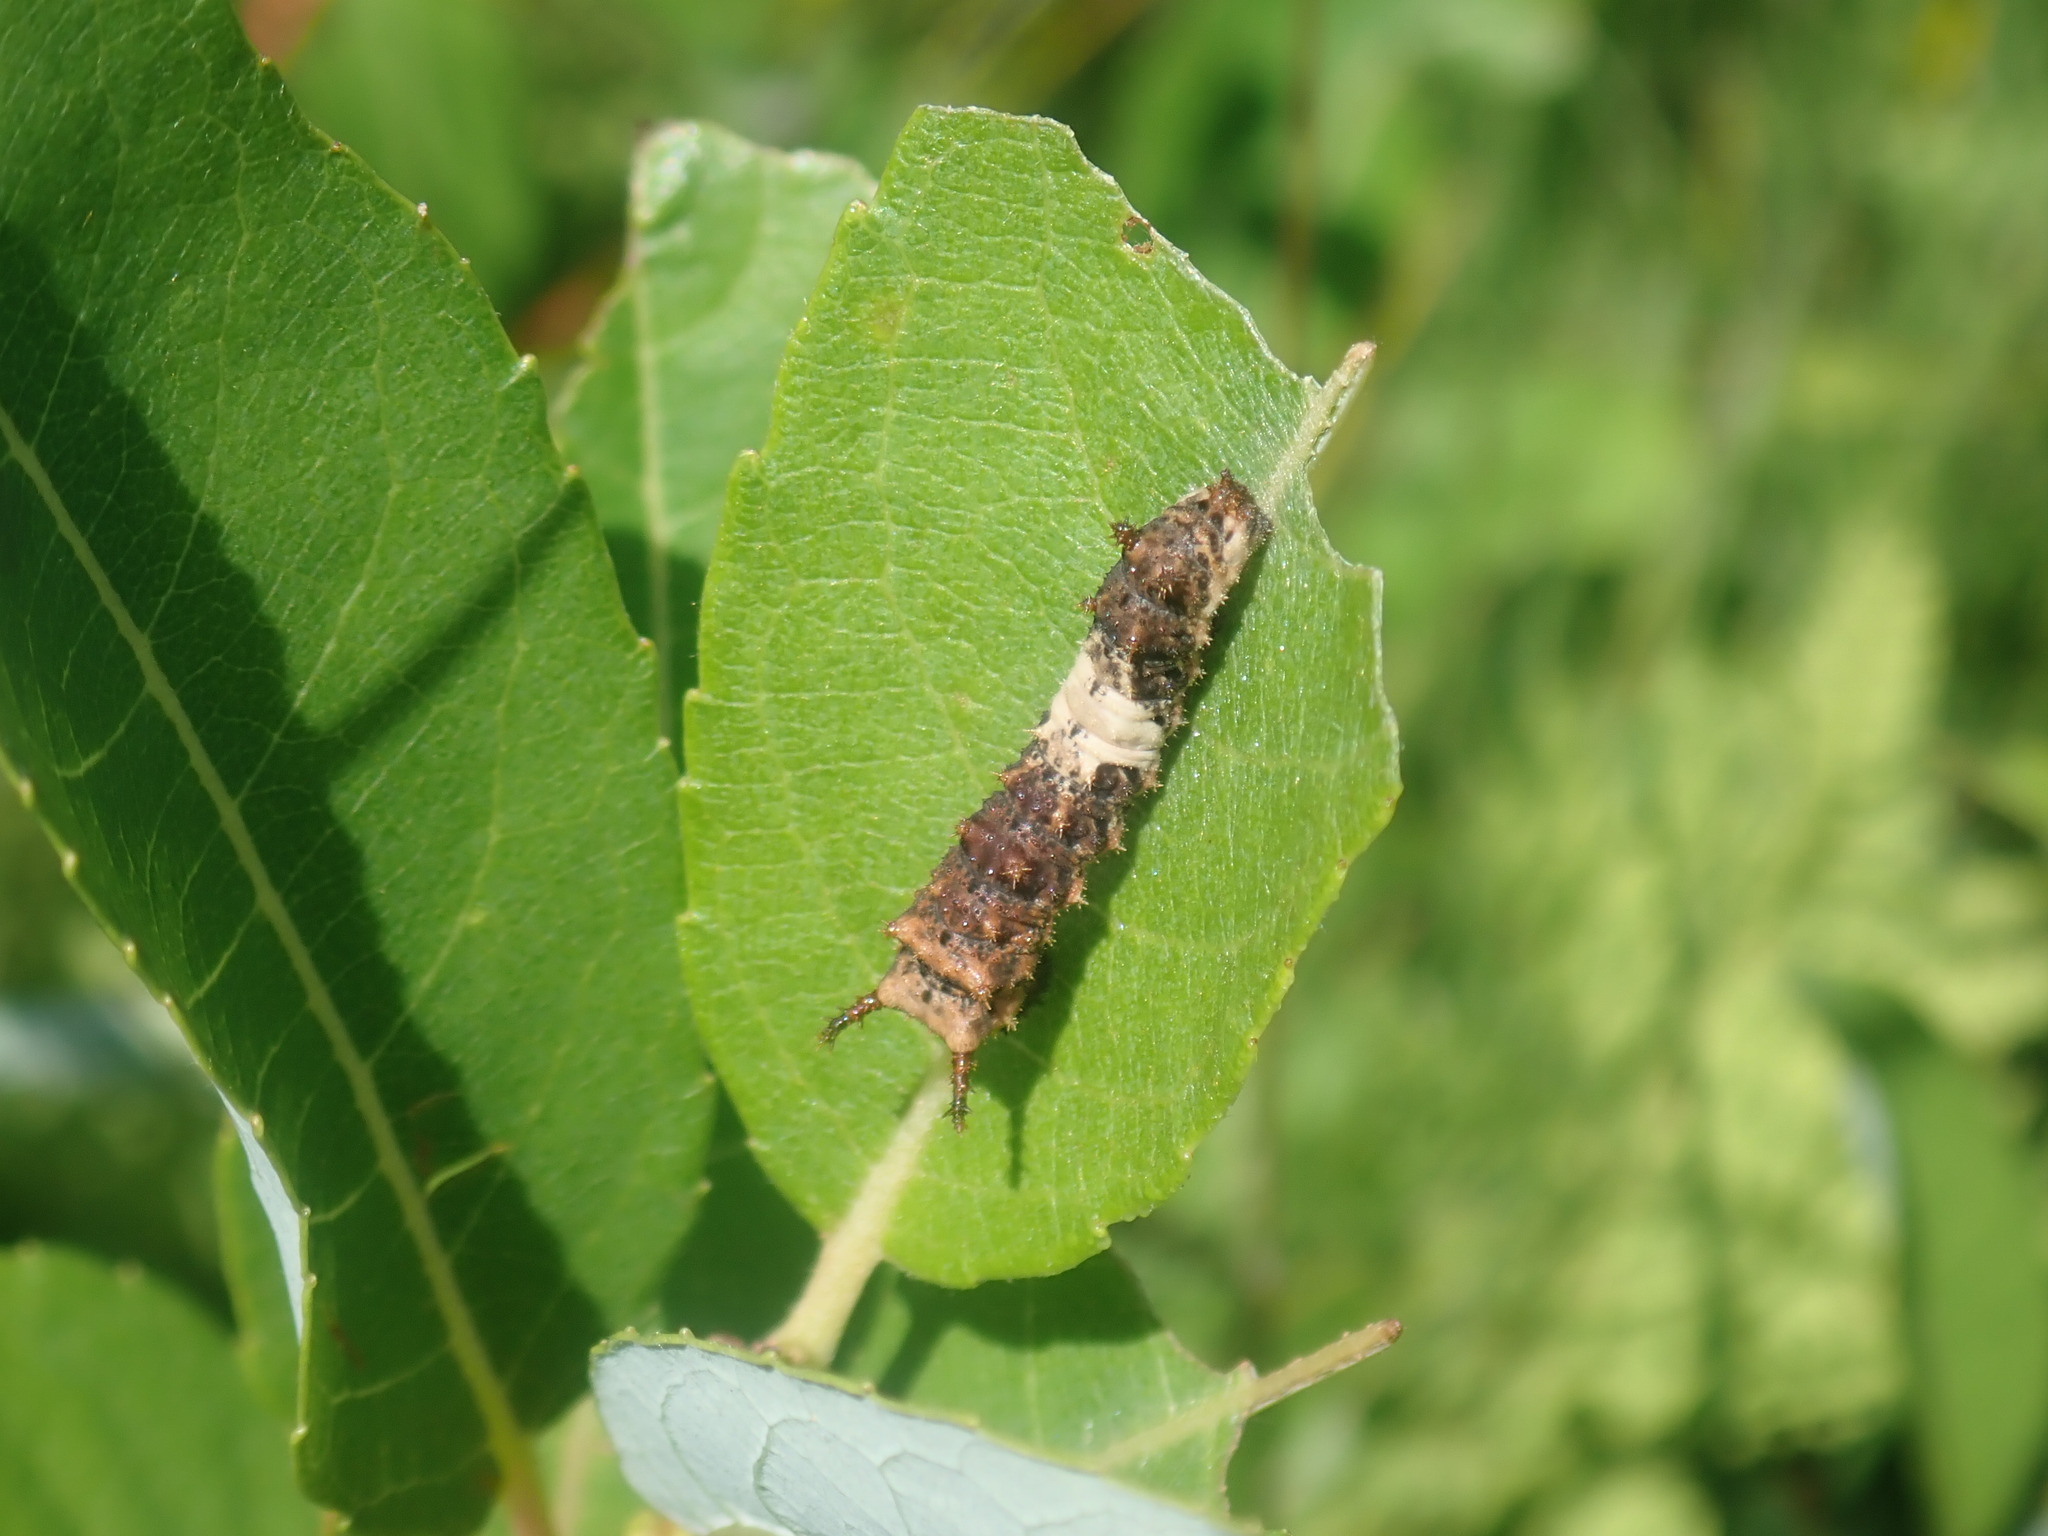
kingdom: Animalia
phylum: Arthropoda
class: Insecta
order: Lepidoptera
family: Nymphalidae
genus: Limenitis
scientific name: Limenitis archippus
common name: Viceroy
